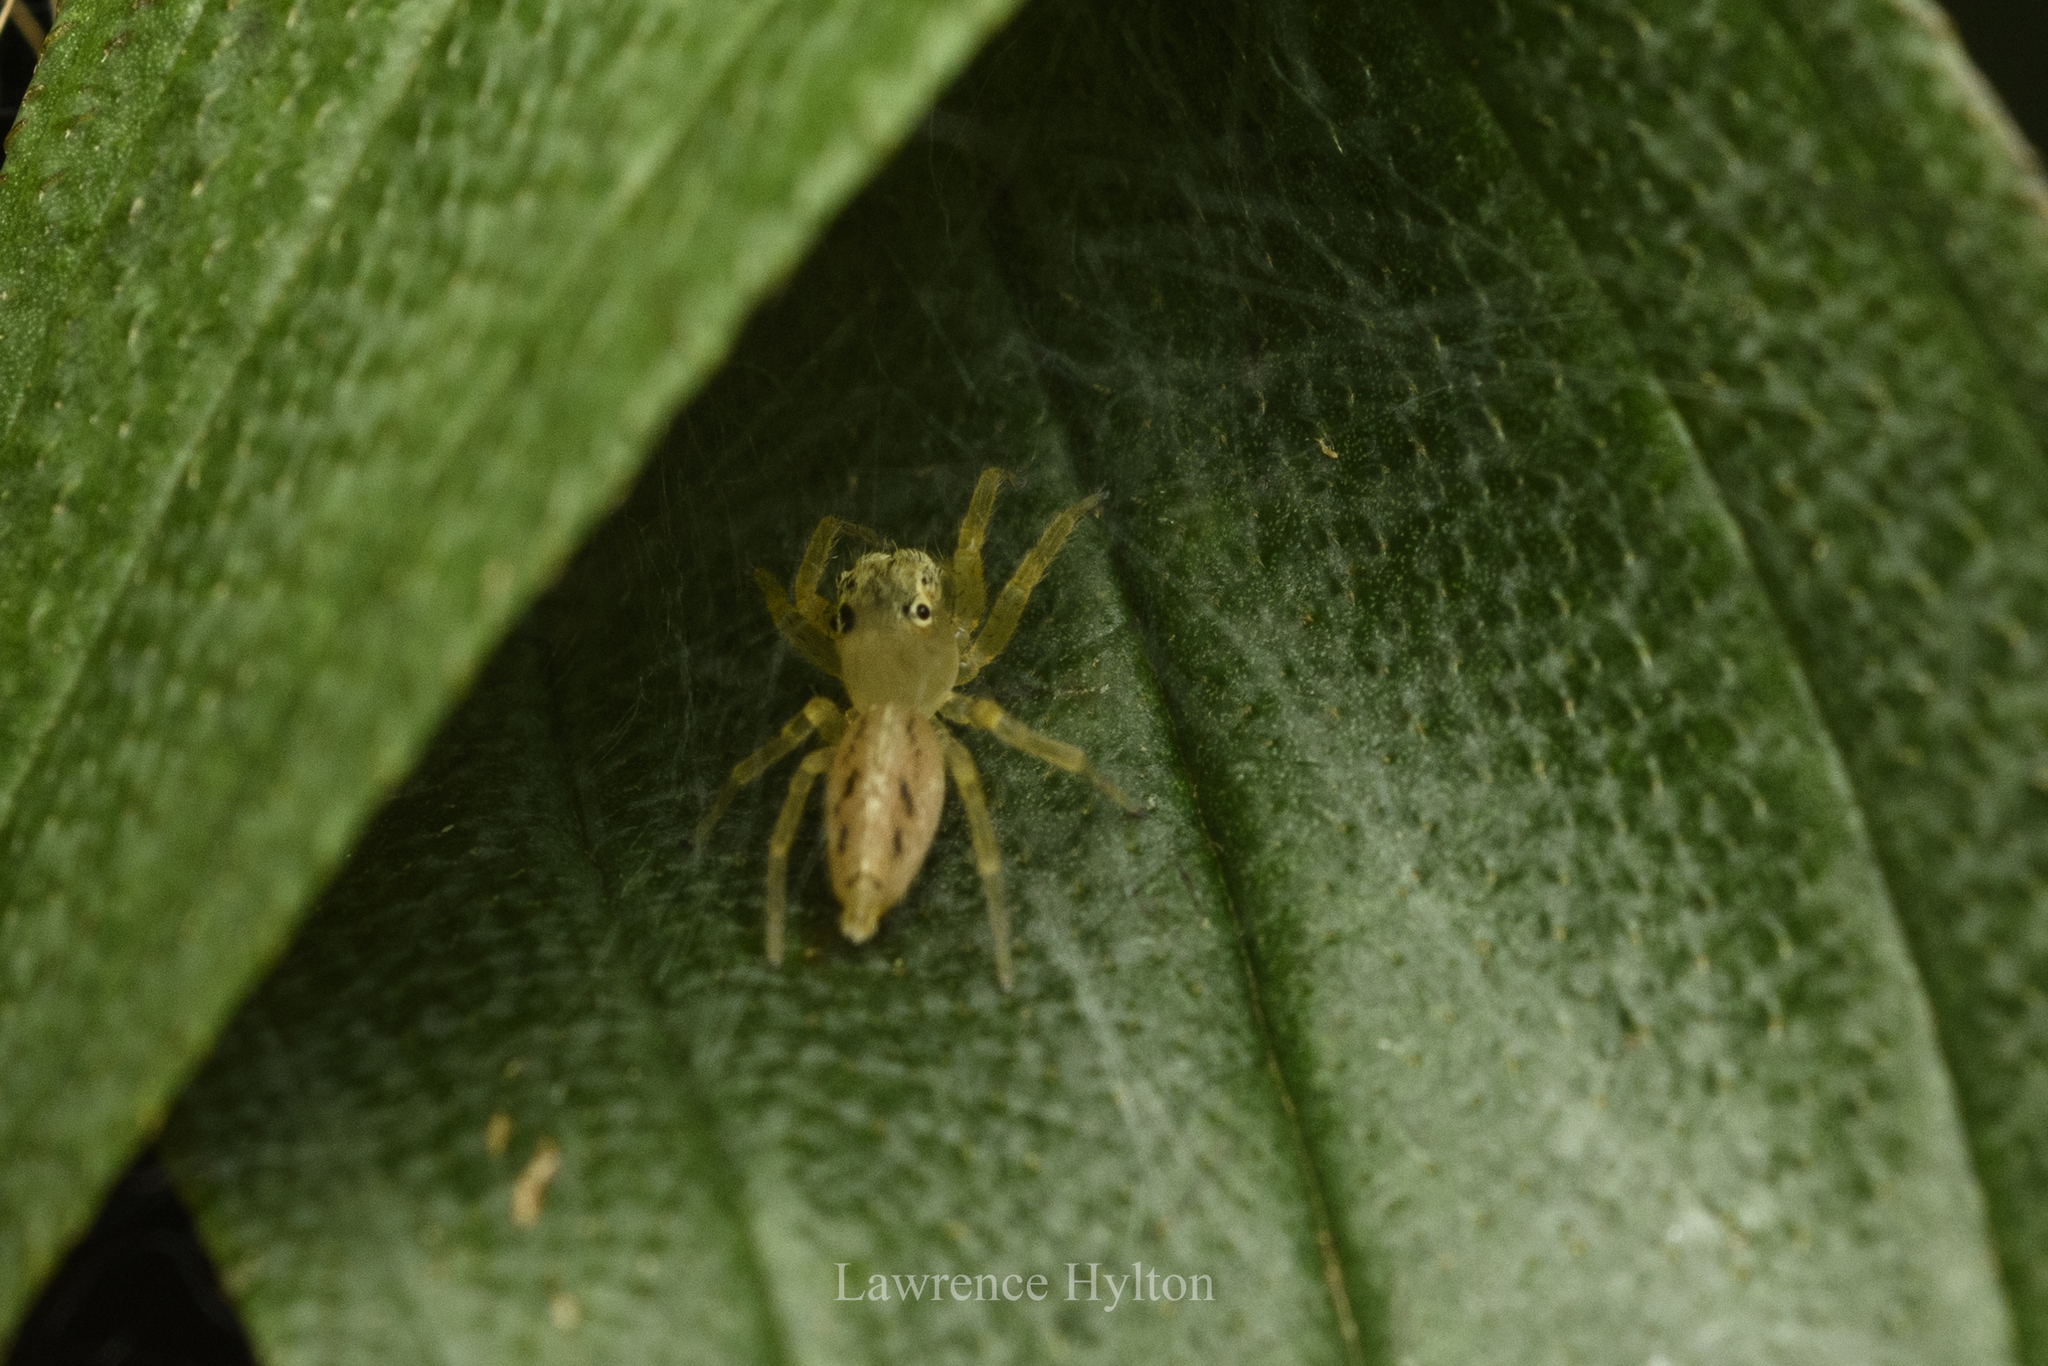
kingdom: Animalia
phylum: Arthropoda
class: Arachnida
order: Araneae
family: Salticidae
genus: Telamonia
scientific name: Telamonia caprina
